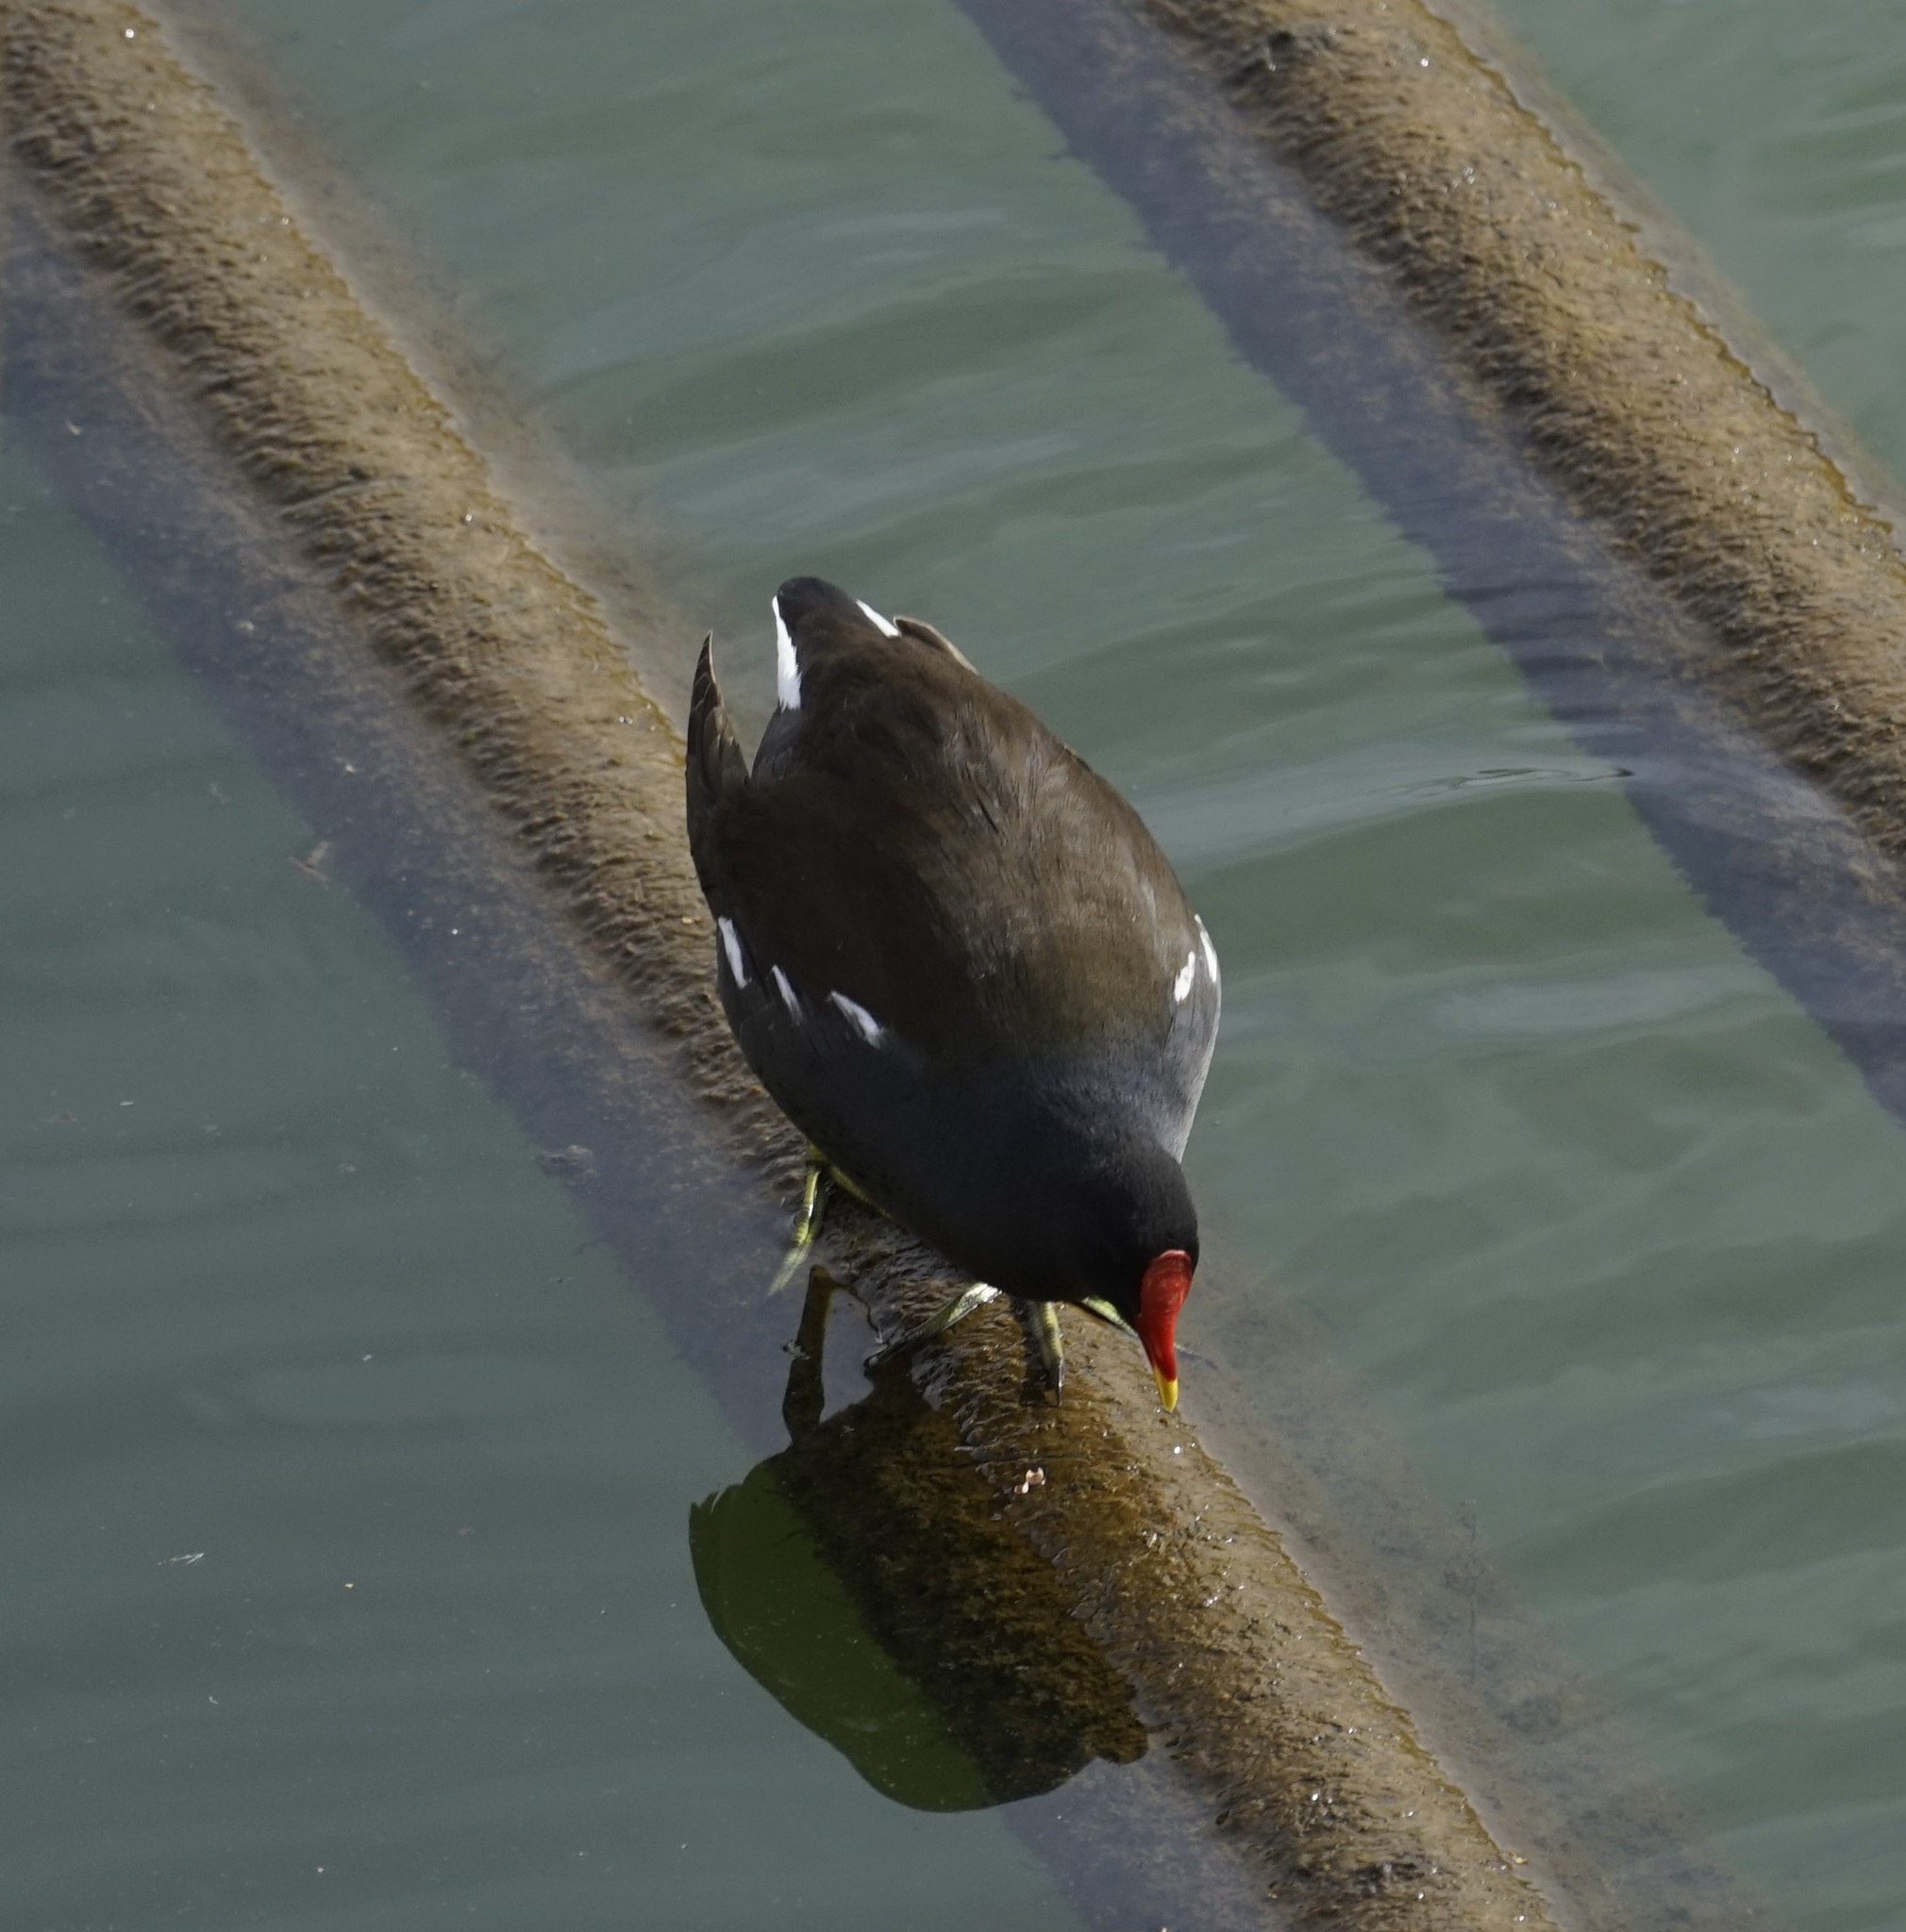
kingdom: Animalia
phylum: Chordata
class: Aves
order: Gruiformes
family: Rallidae
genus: Gallinula
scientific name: Gallinula chloropus
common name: Common moorhen
